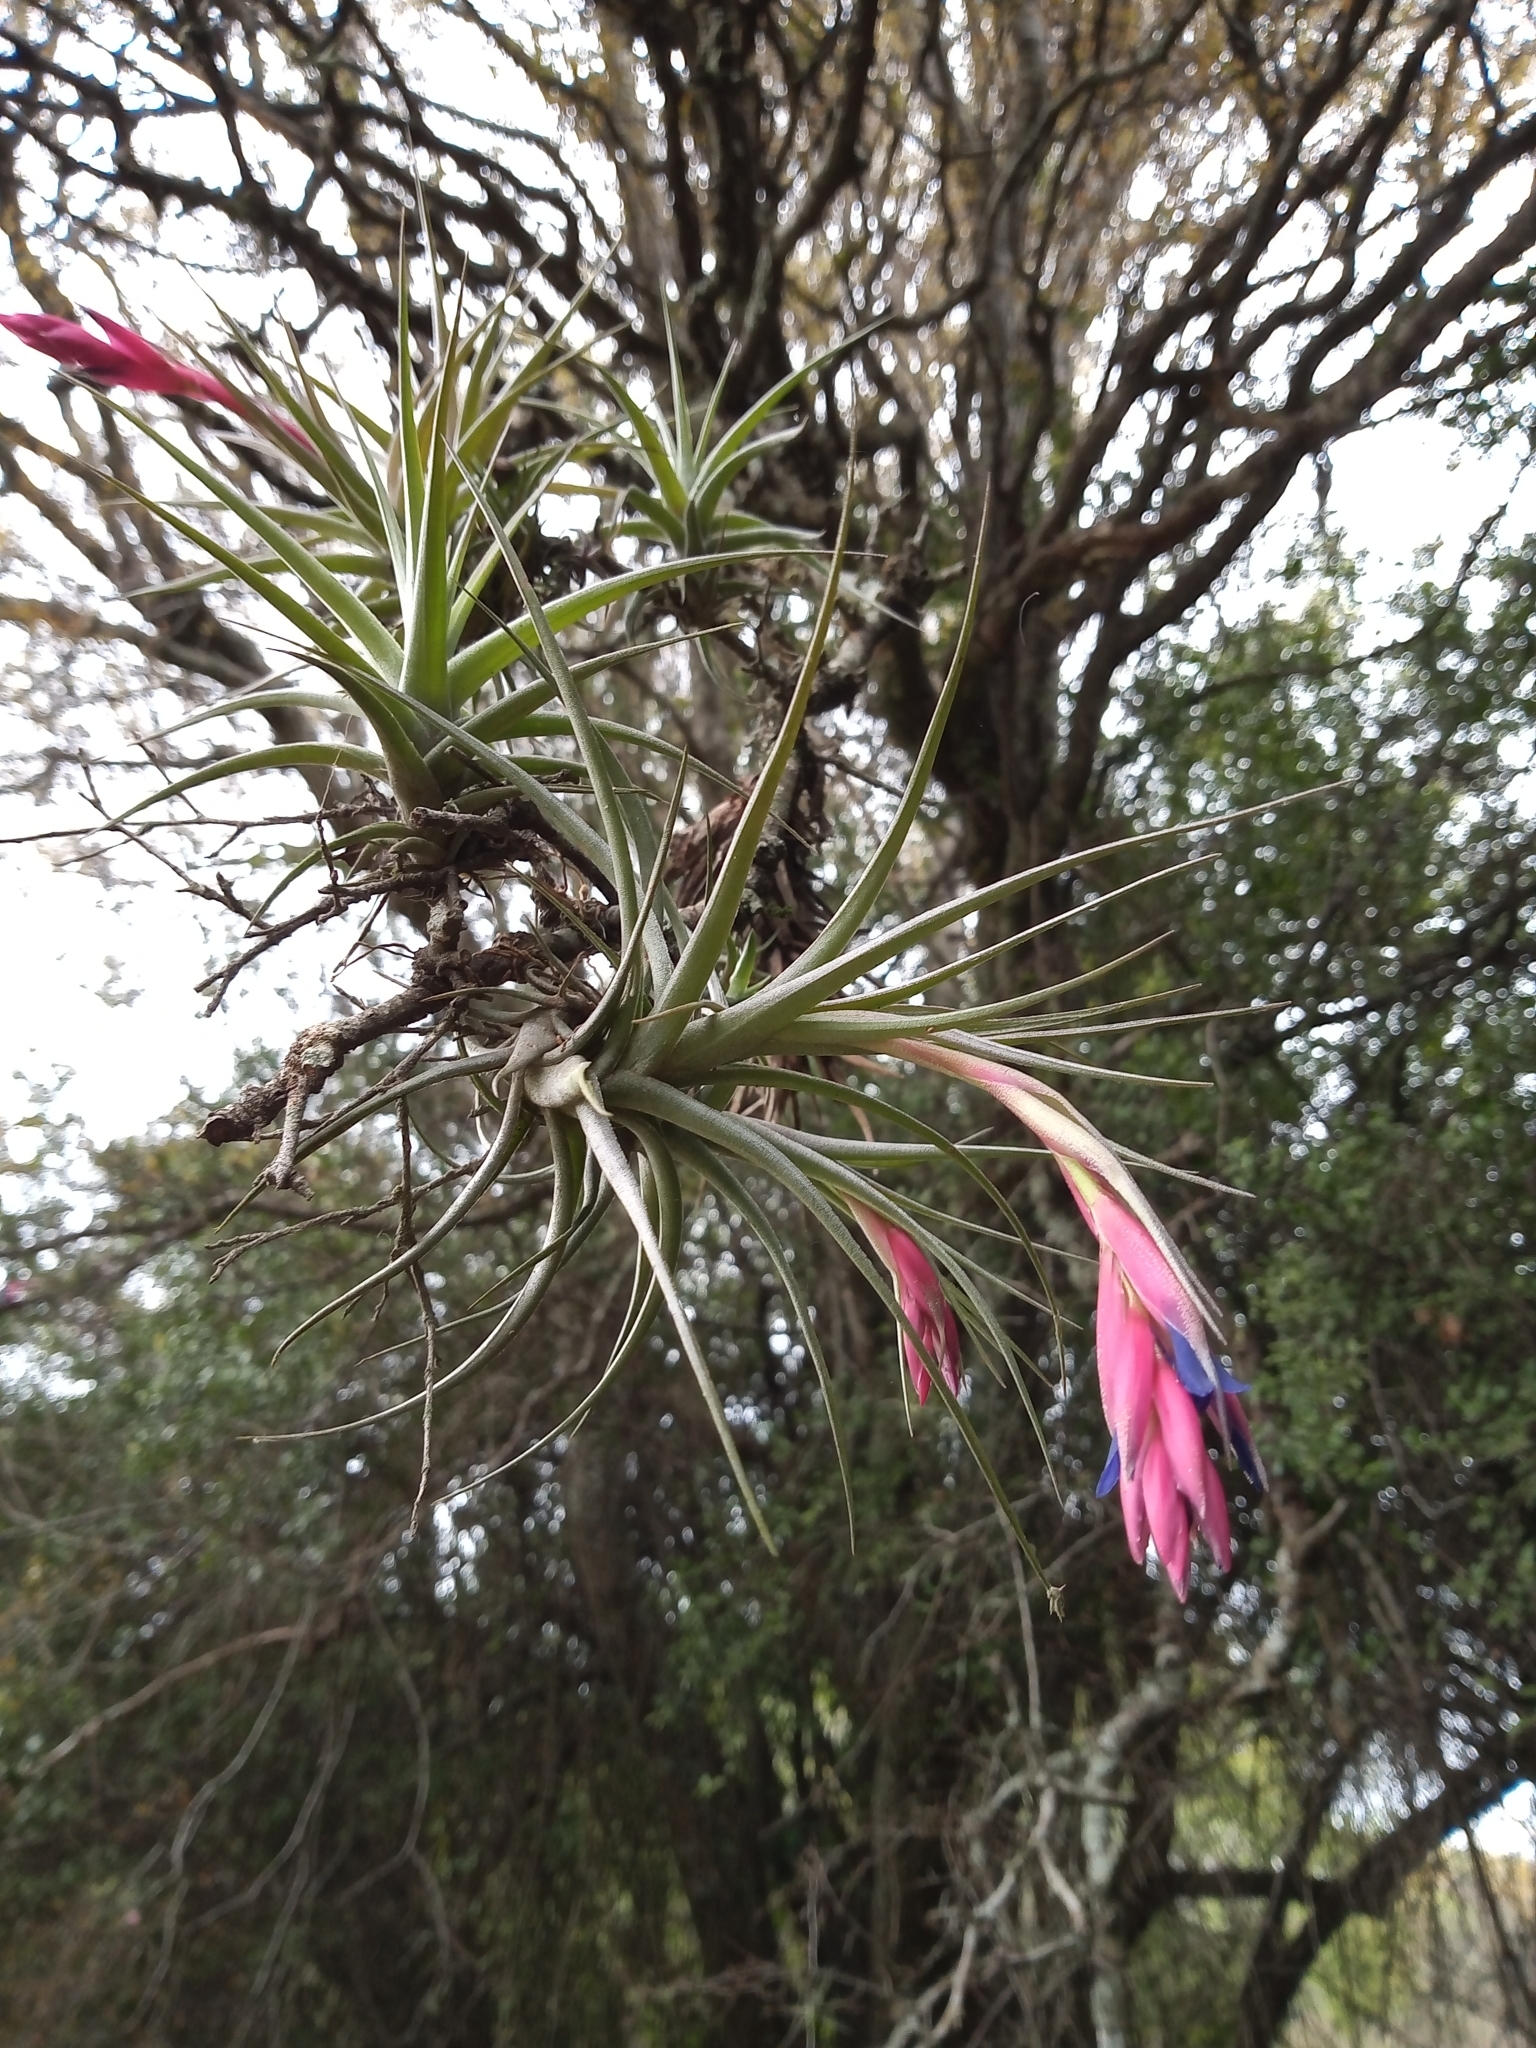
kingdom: Plantae
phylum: Tracheophyta
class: Liliopsida
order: Poales
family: Bromeliaceae
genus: Tillandsia
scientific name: Tillandsia aeranthos
